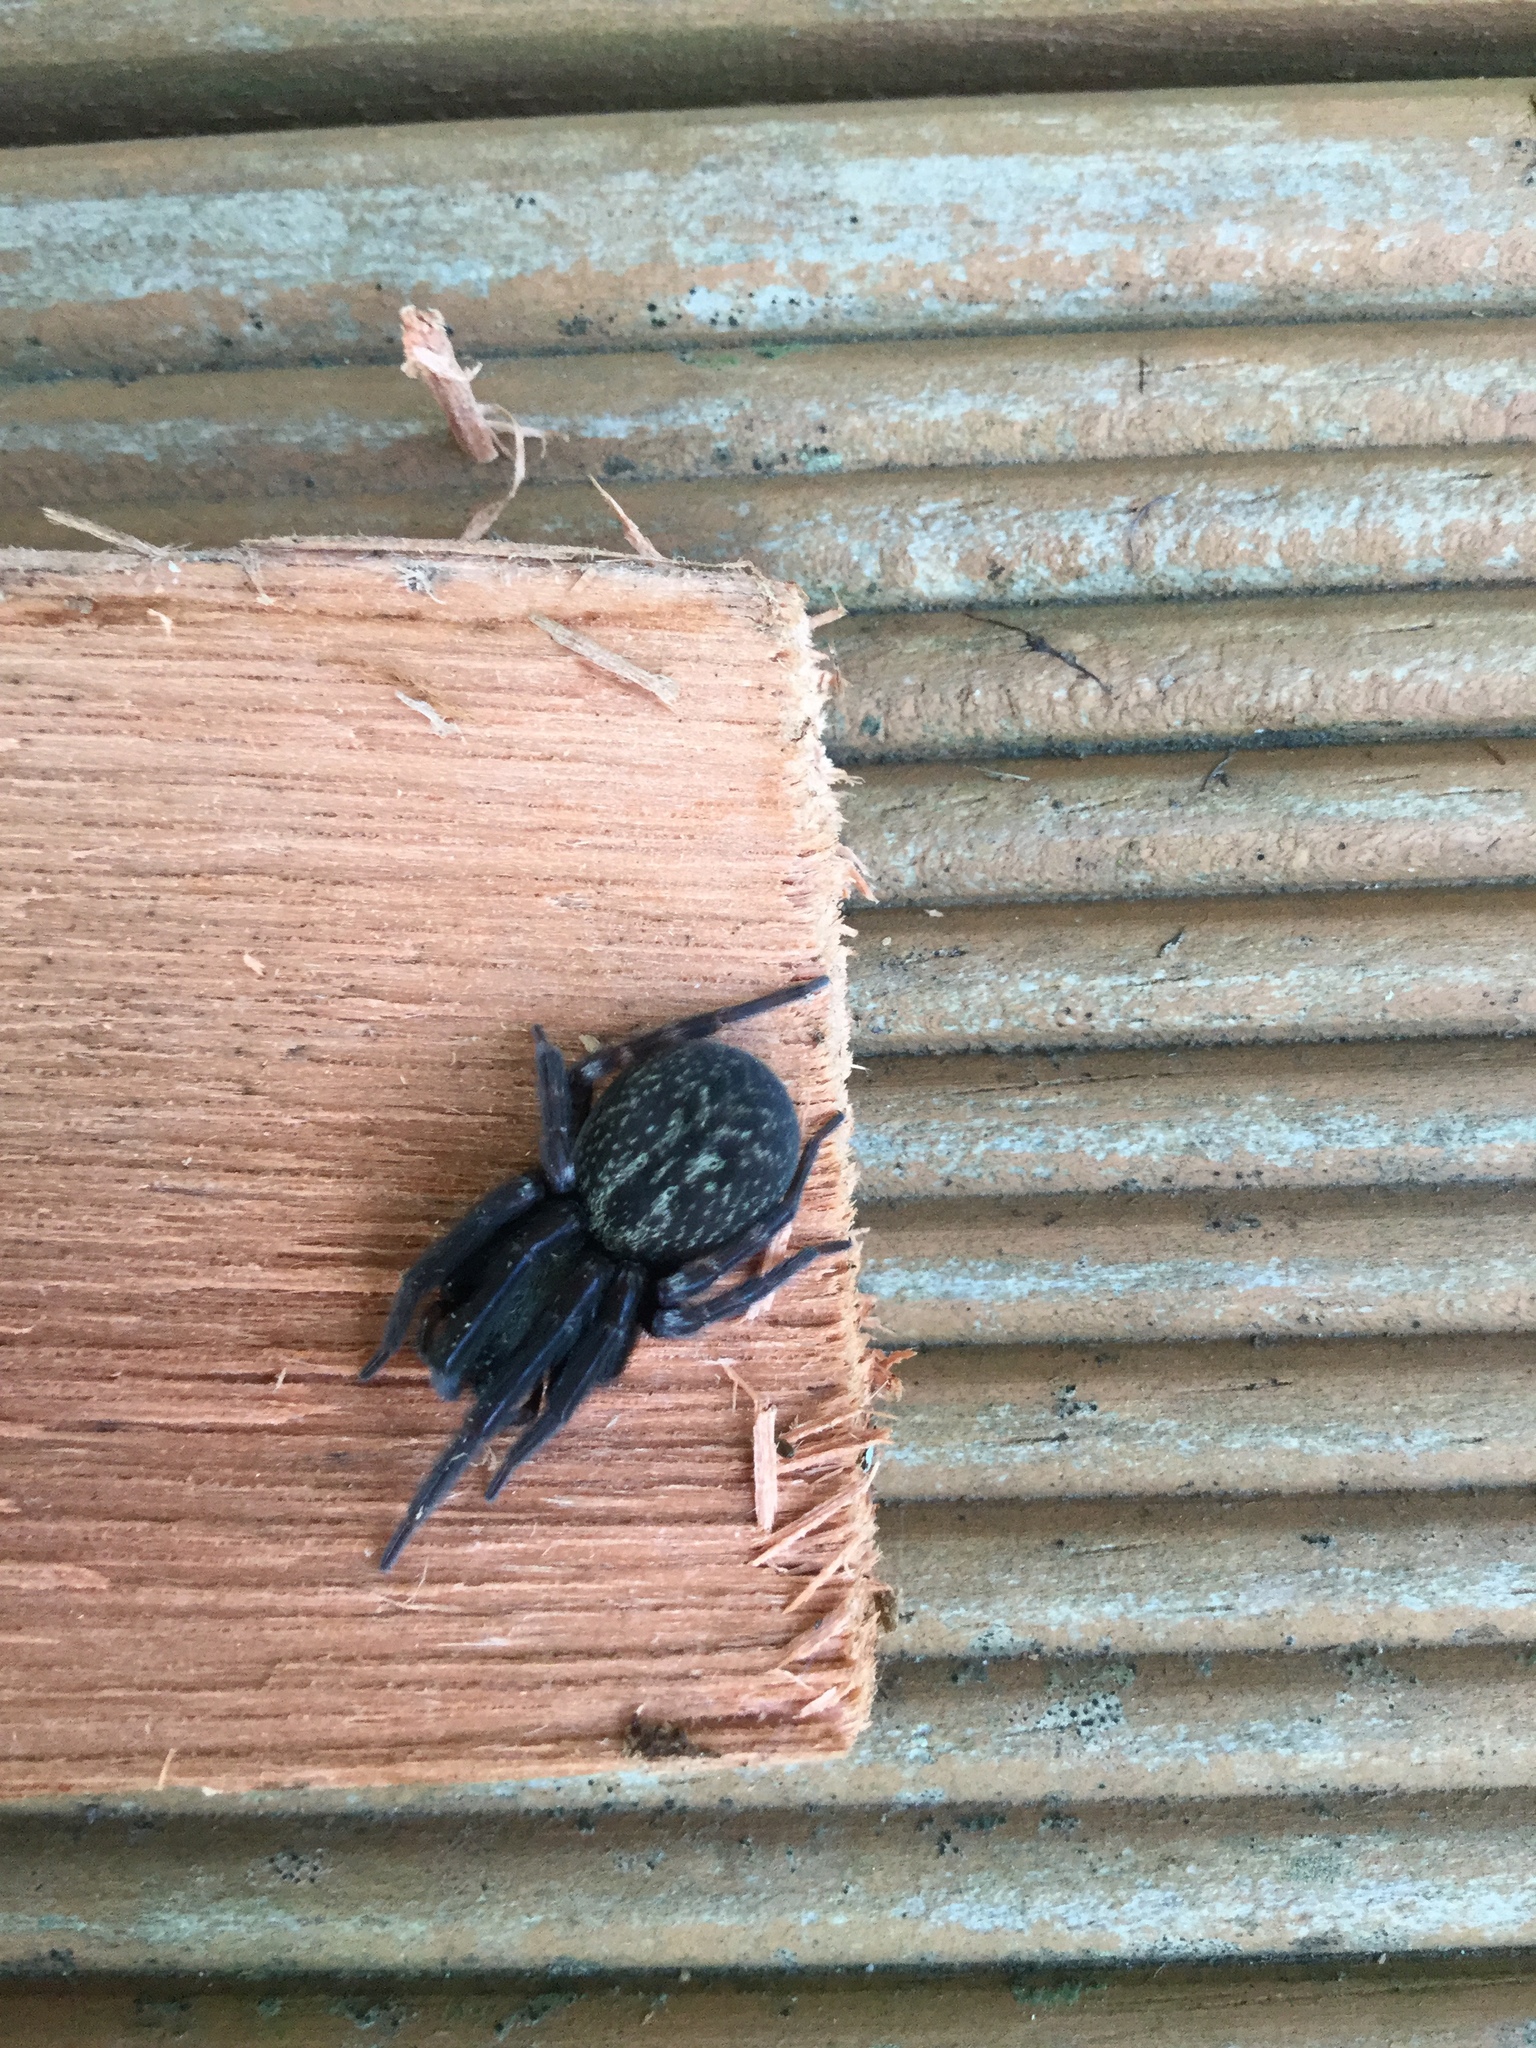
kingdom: Animalia
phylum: Arthropoda
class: Arachnida
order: Araneae
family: Desidae
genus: Badumna
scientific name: Badumna longinqua
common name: Gray house spider
